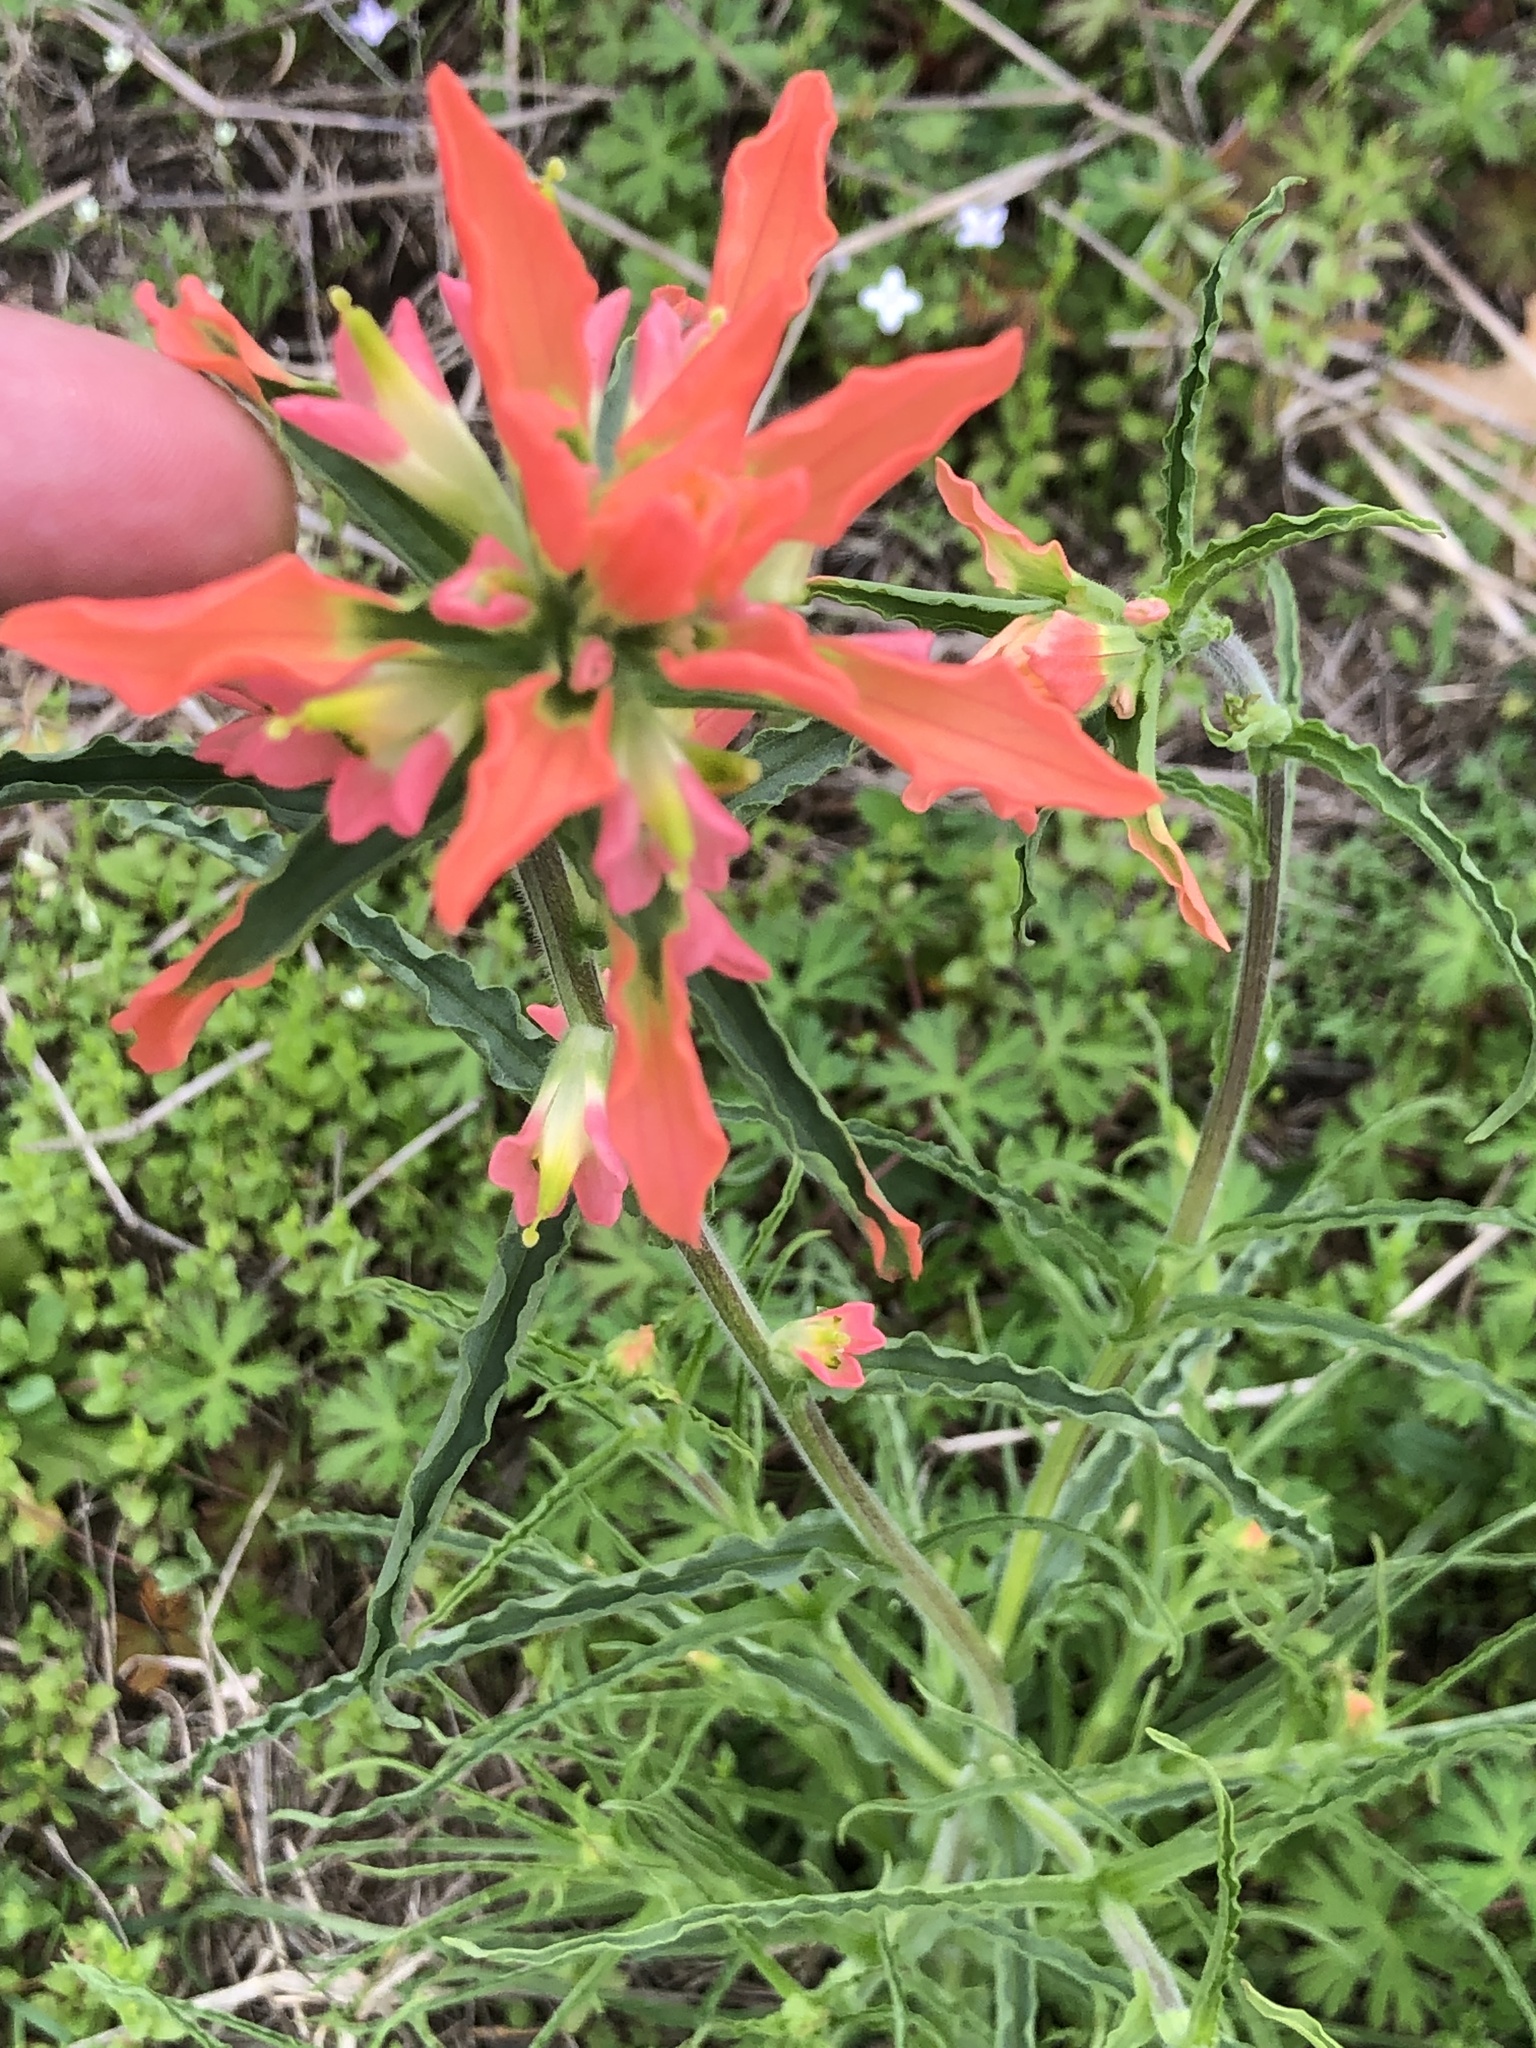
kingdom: Plantae
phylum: Tracheophyta
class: Magnoliopsida
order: Lamiales
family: Orobanchaceae
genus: Castilleja
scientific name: Castilleja indivisa
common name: Texas paintbrush
